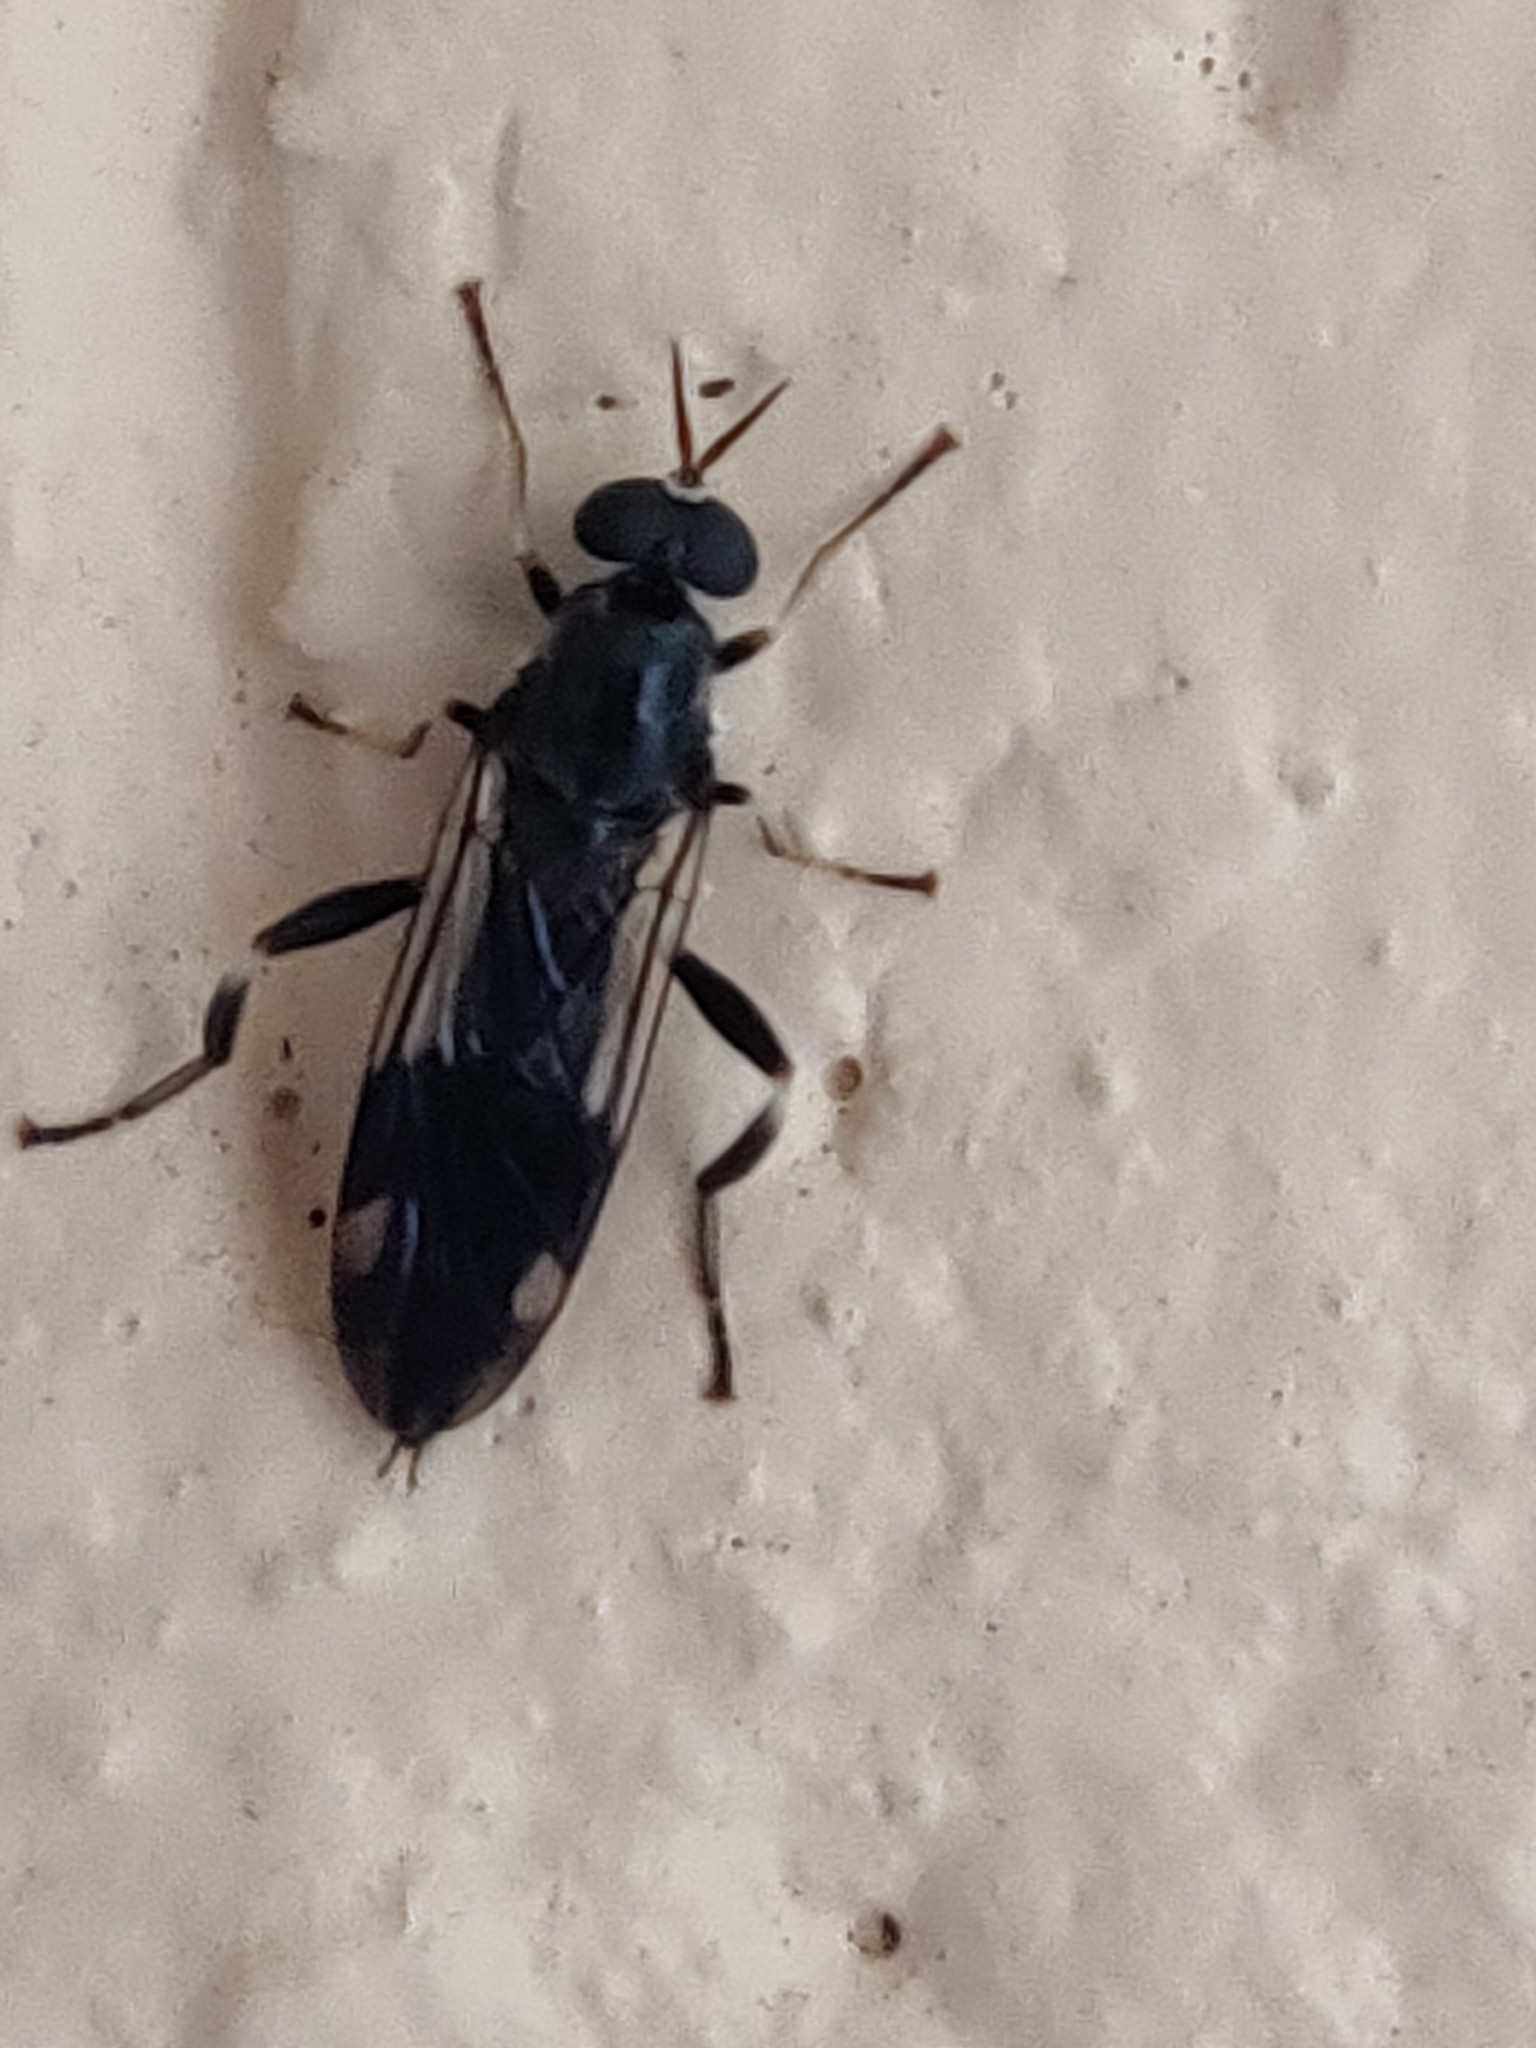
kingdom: Animalia
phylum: Arthropoda
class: Insecta
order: Diptera
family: Stratiomyidae
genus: Exaireta
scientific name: Exaireta spinigera
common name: Blue soldier fly
